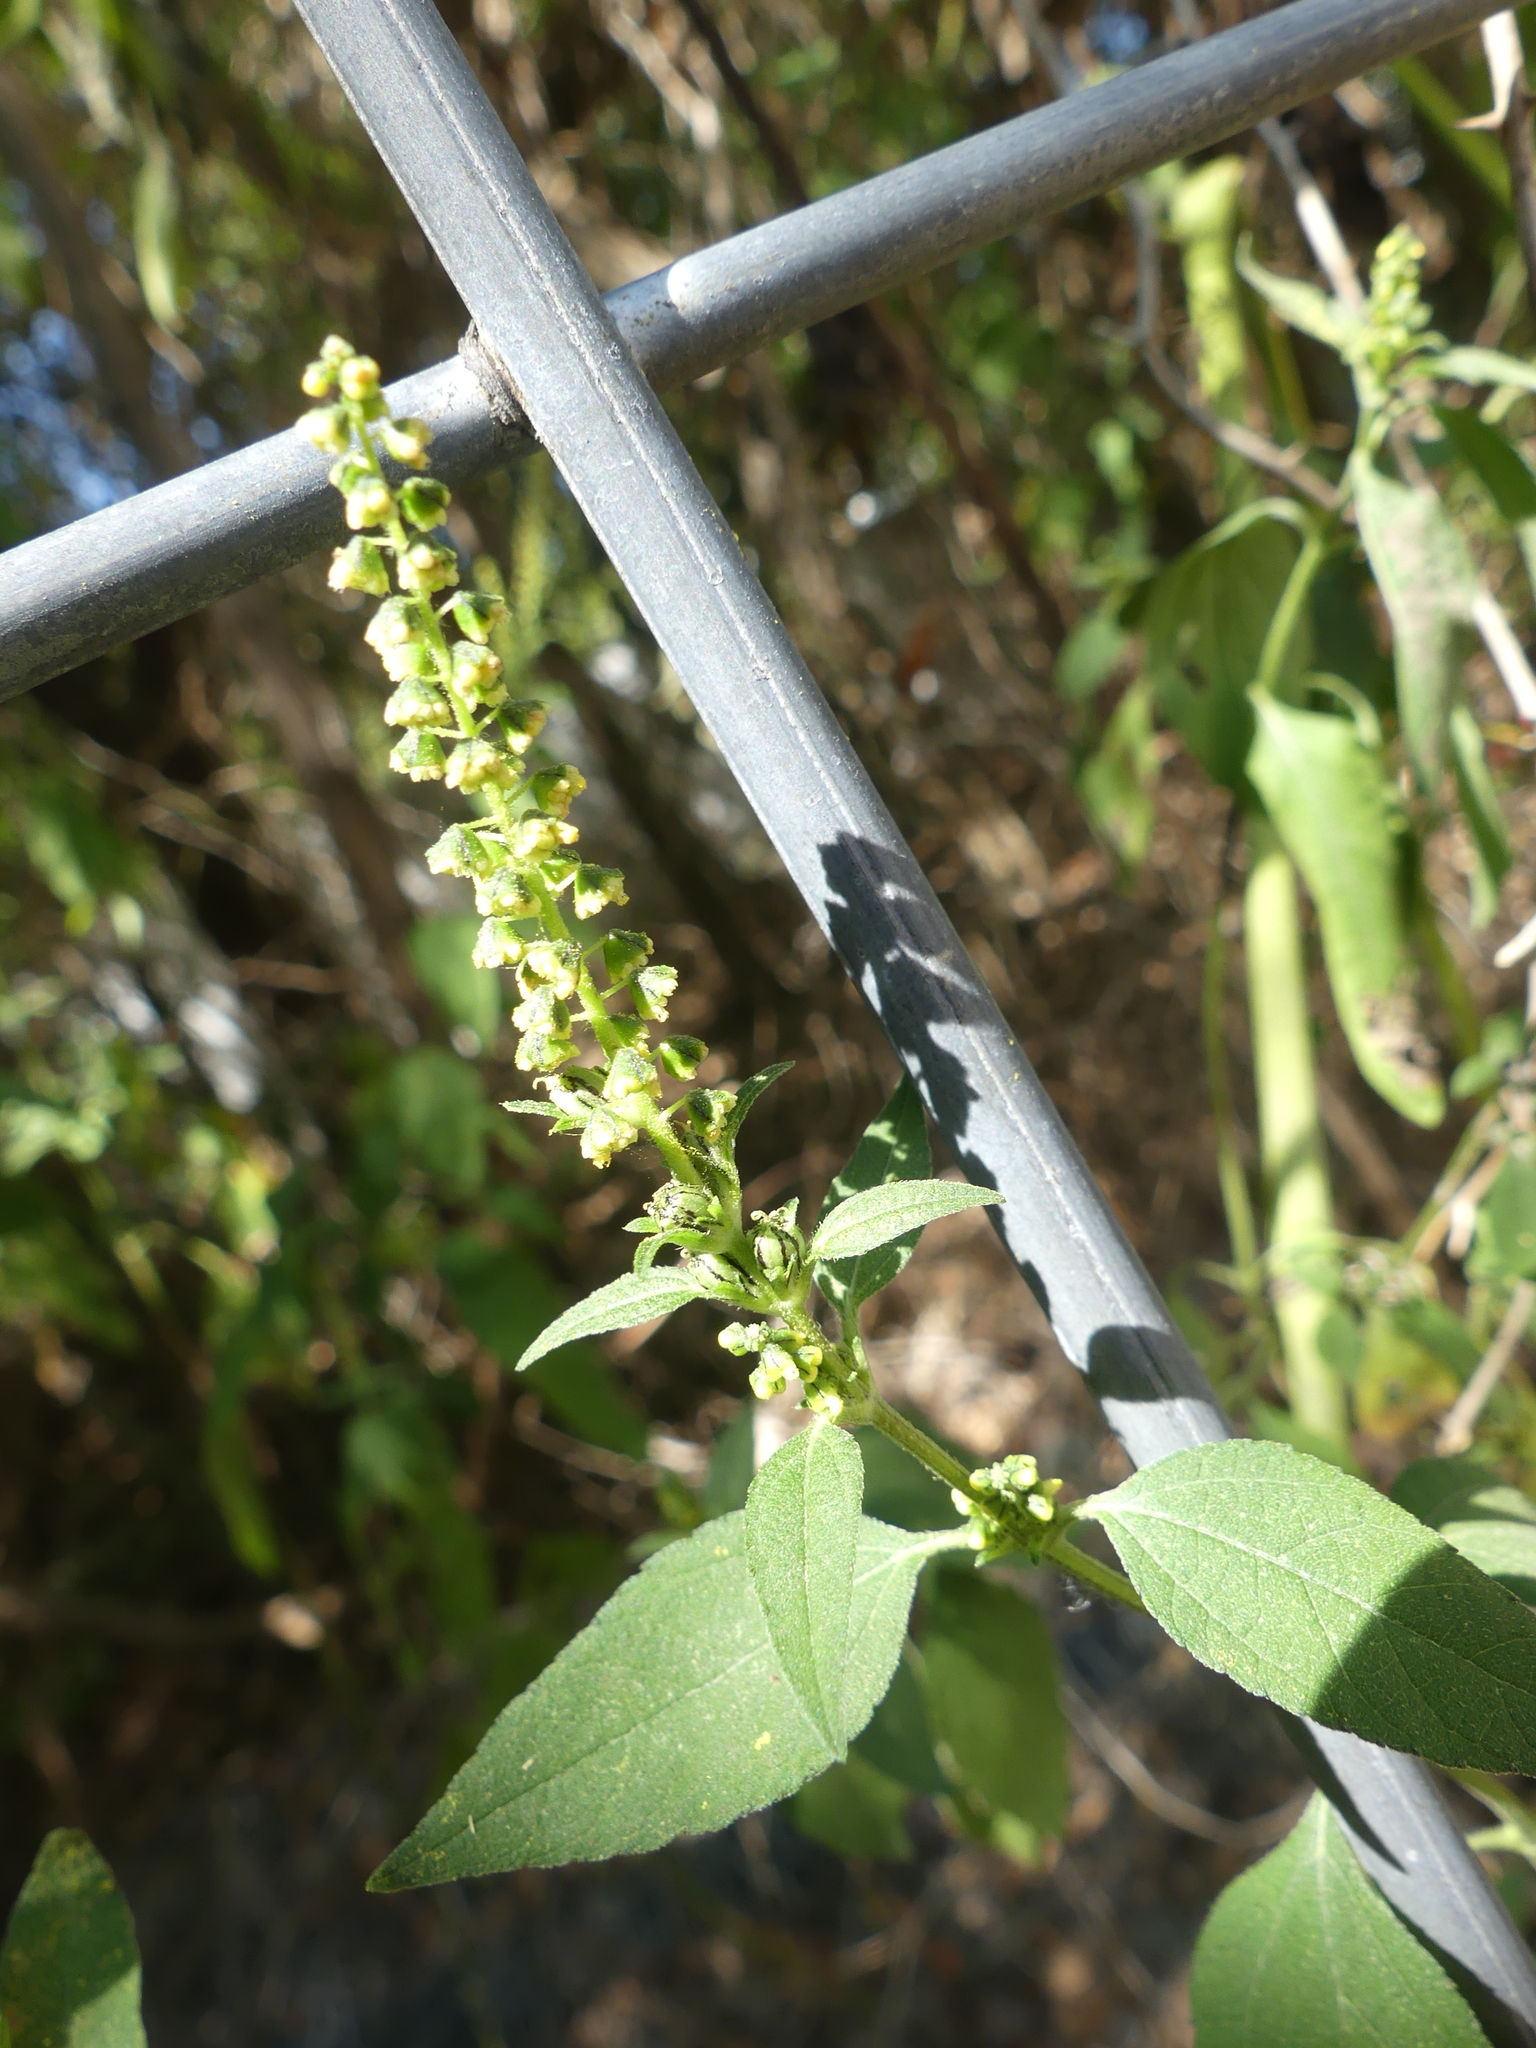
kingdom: Plantae
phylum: Tracheophyta
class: Magnoliopsida
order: Asterales
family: Asteraceae
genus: Ambrosia
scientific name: Ambrosia trifida
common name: Giant ragweed
